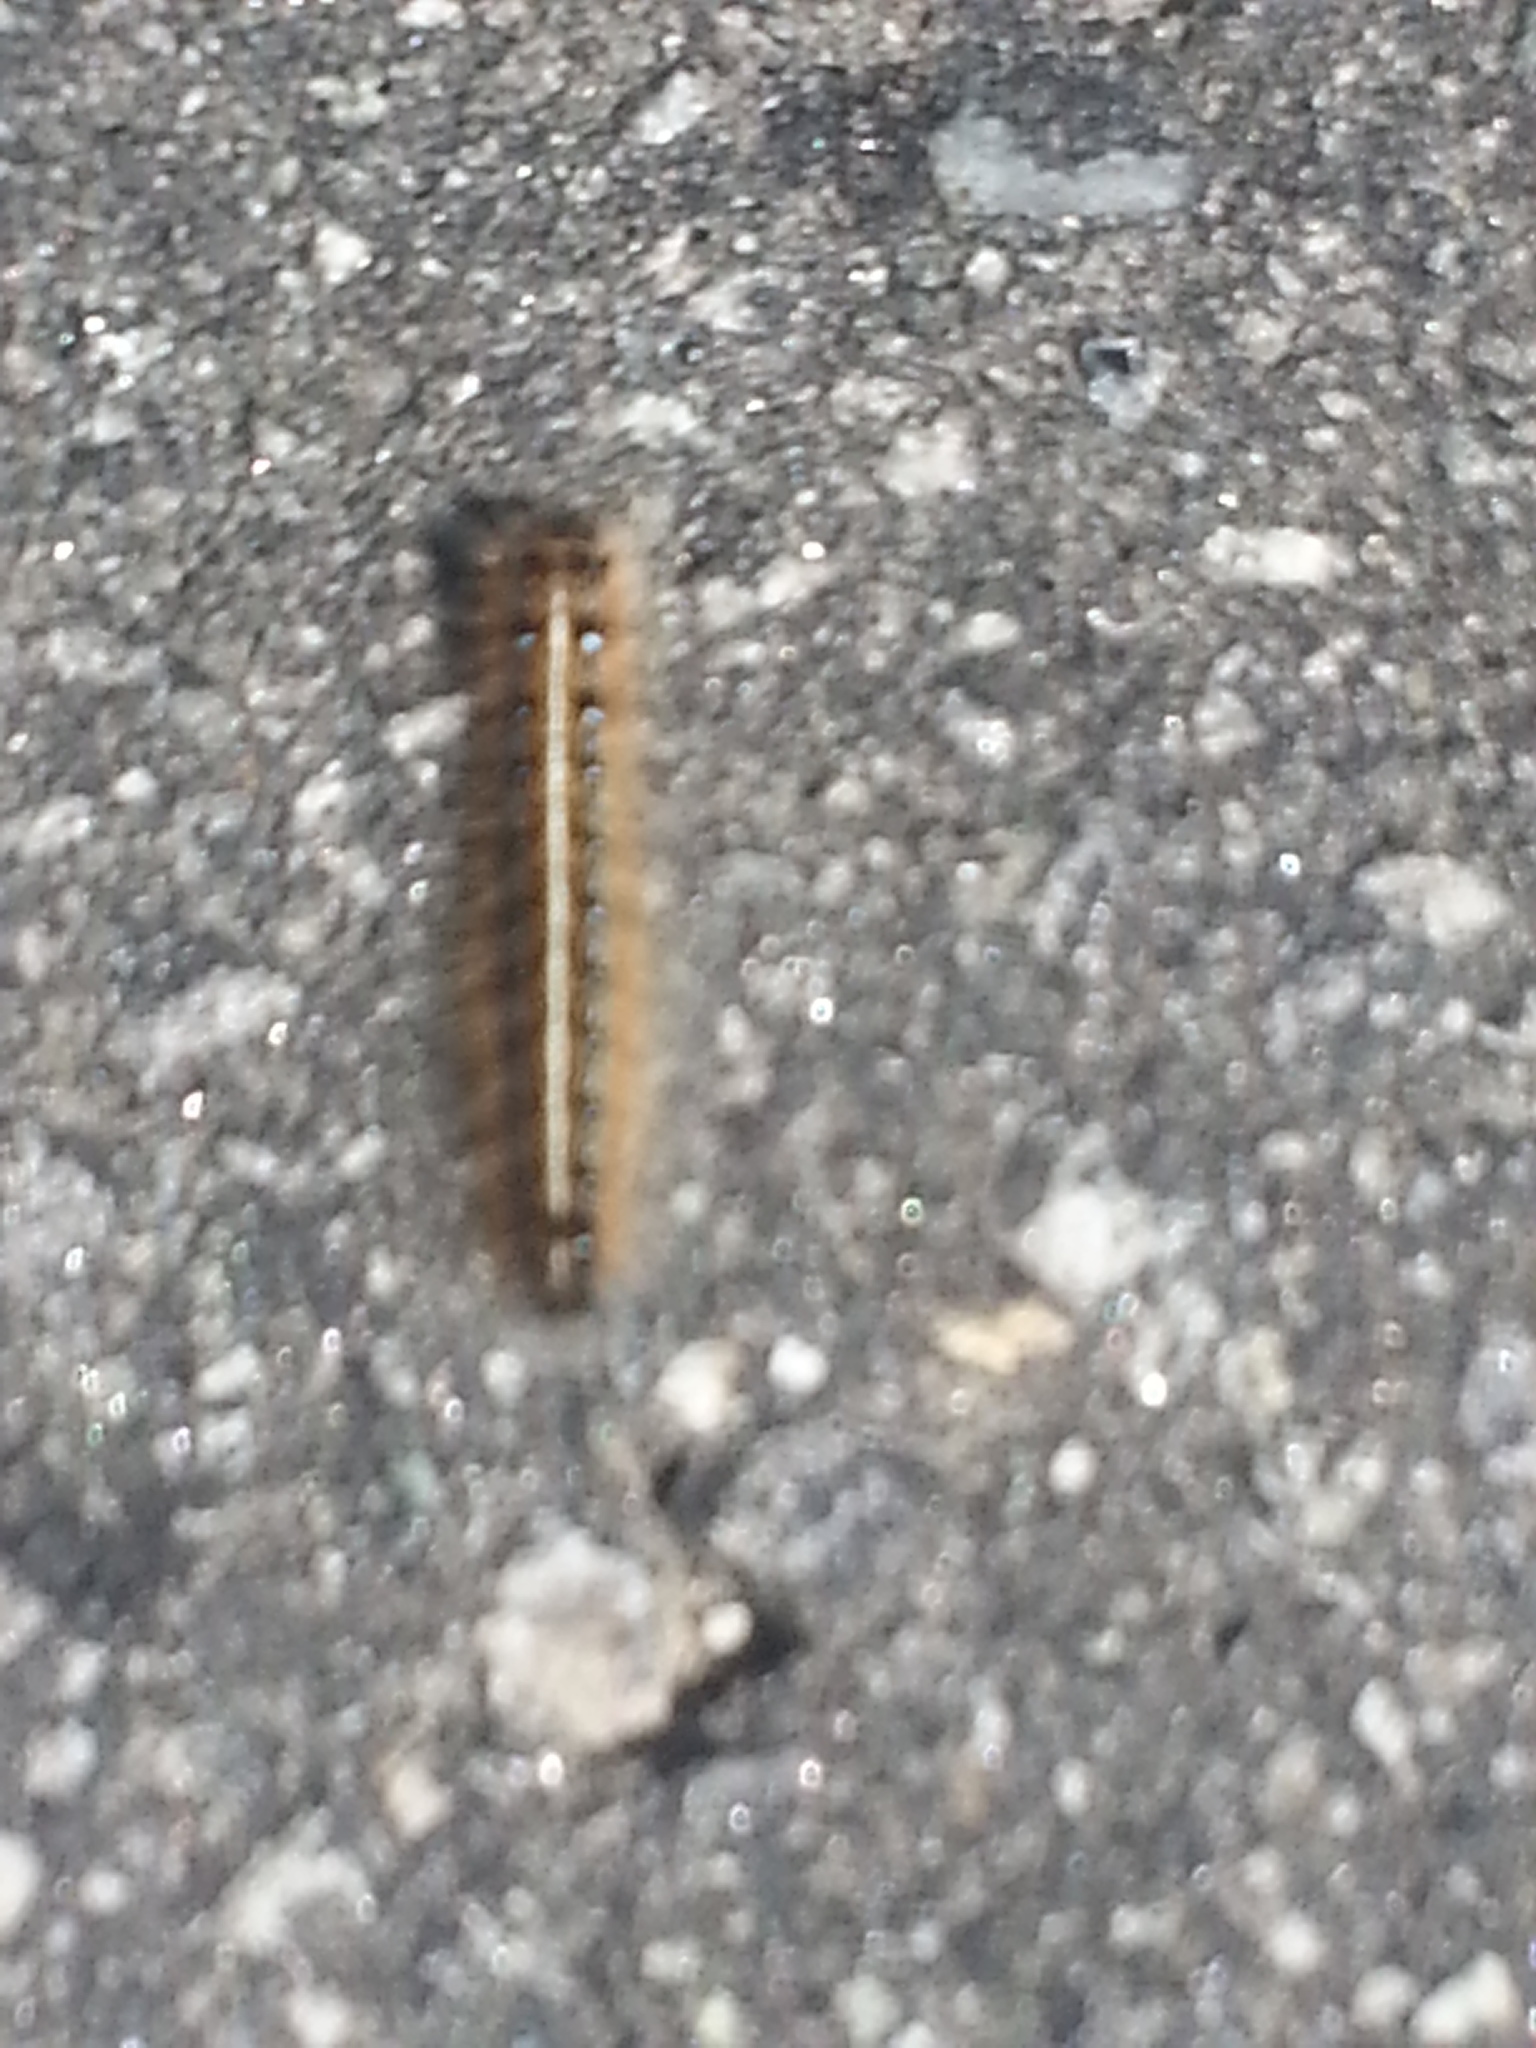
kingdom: Animalia
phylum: Arthropoda
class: Insecta
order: Lepidoptera
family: Lasiocampidae
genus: Malacosoma
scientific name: Malacosoma americana
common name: Eastern tent caterpillar moth
